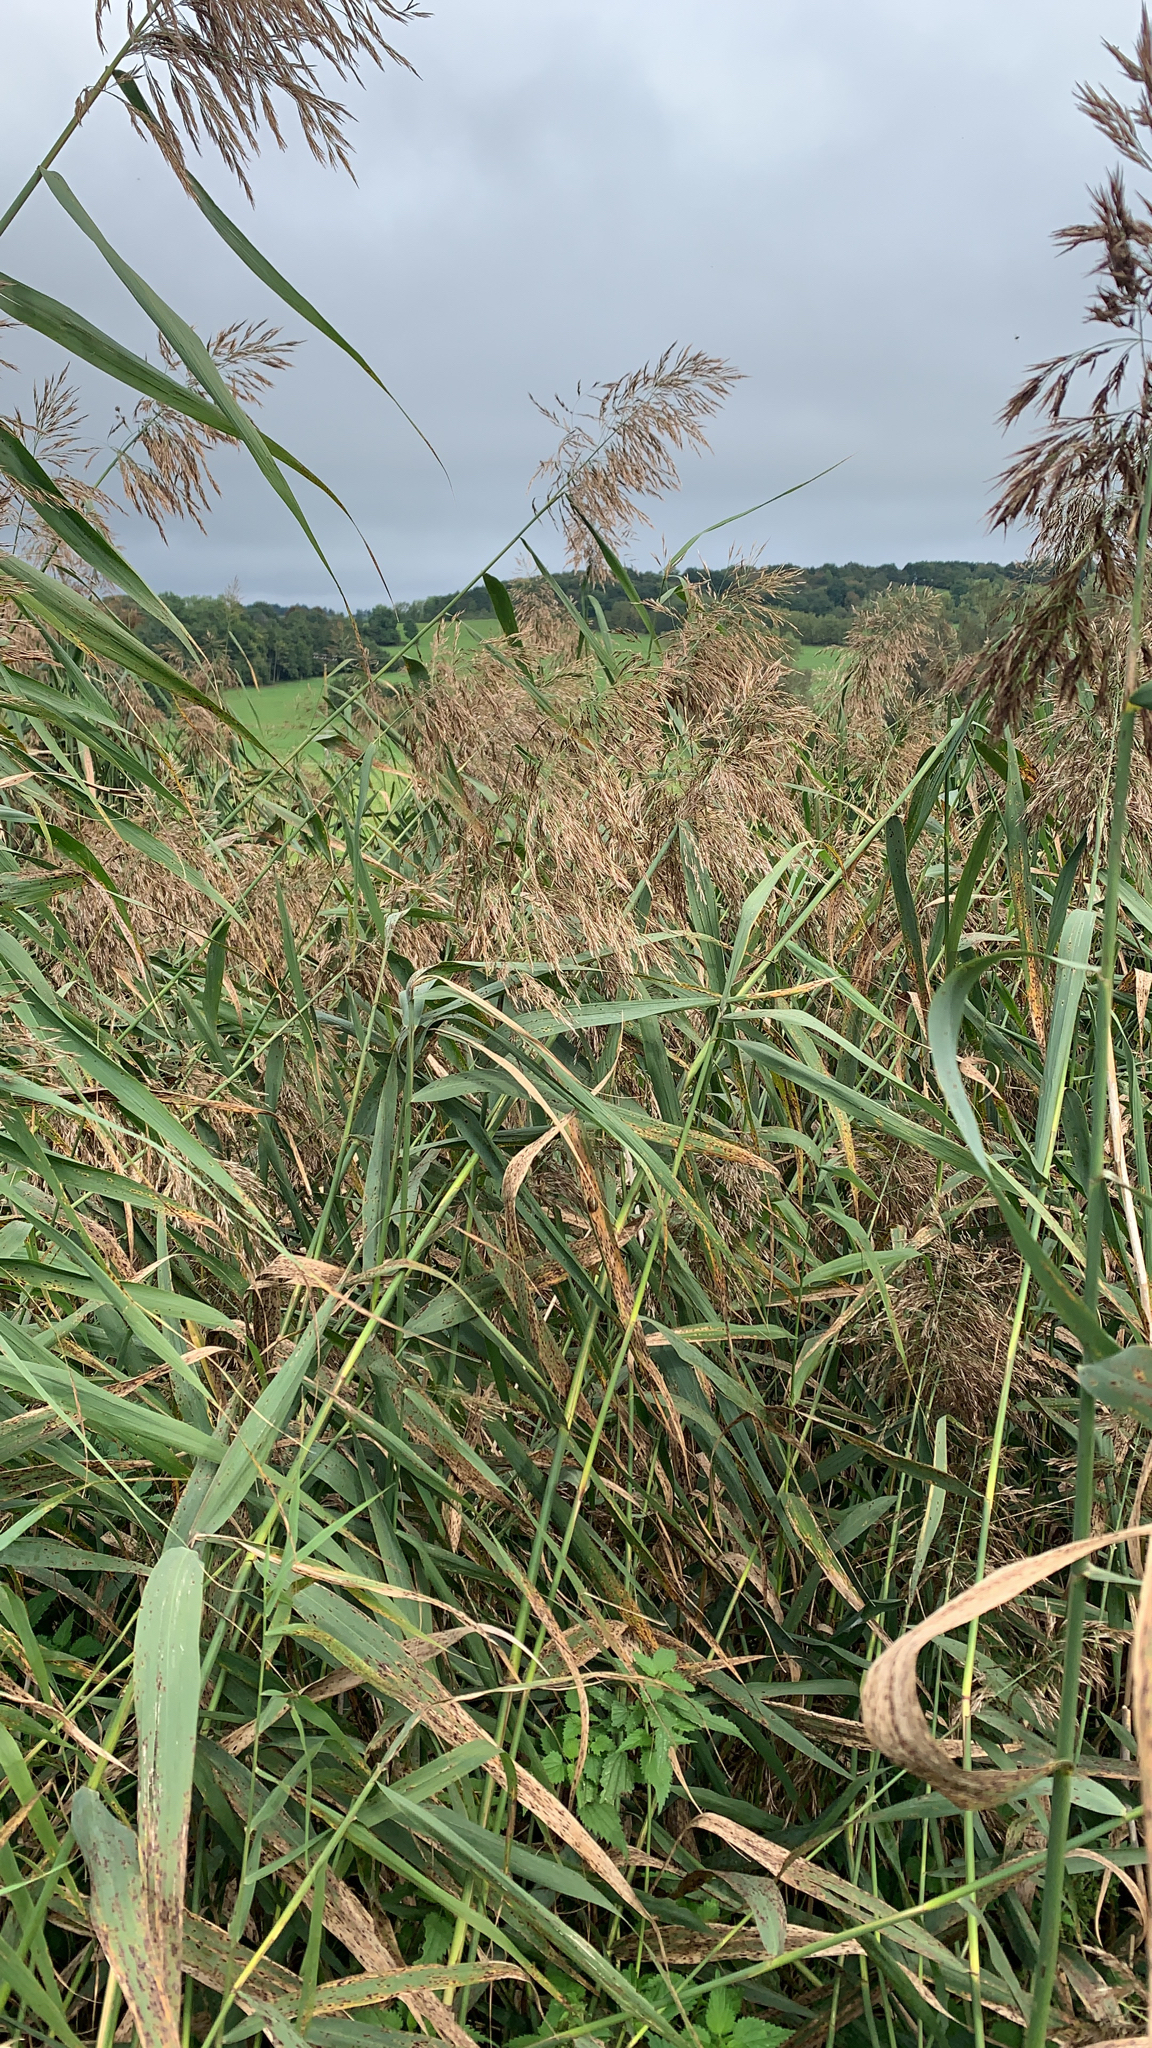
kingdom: Plantae
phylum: Tracheophyta
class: Liliopsida
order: Poales
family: Poaceae
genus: Phragmites
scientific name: Phragmites australis
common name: Common reed
